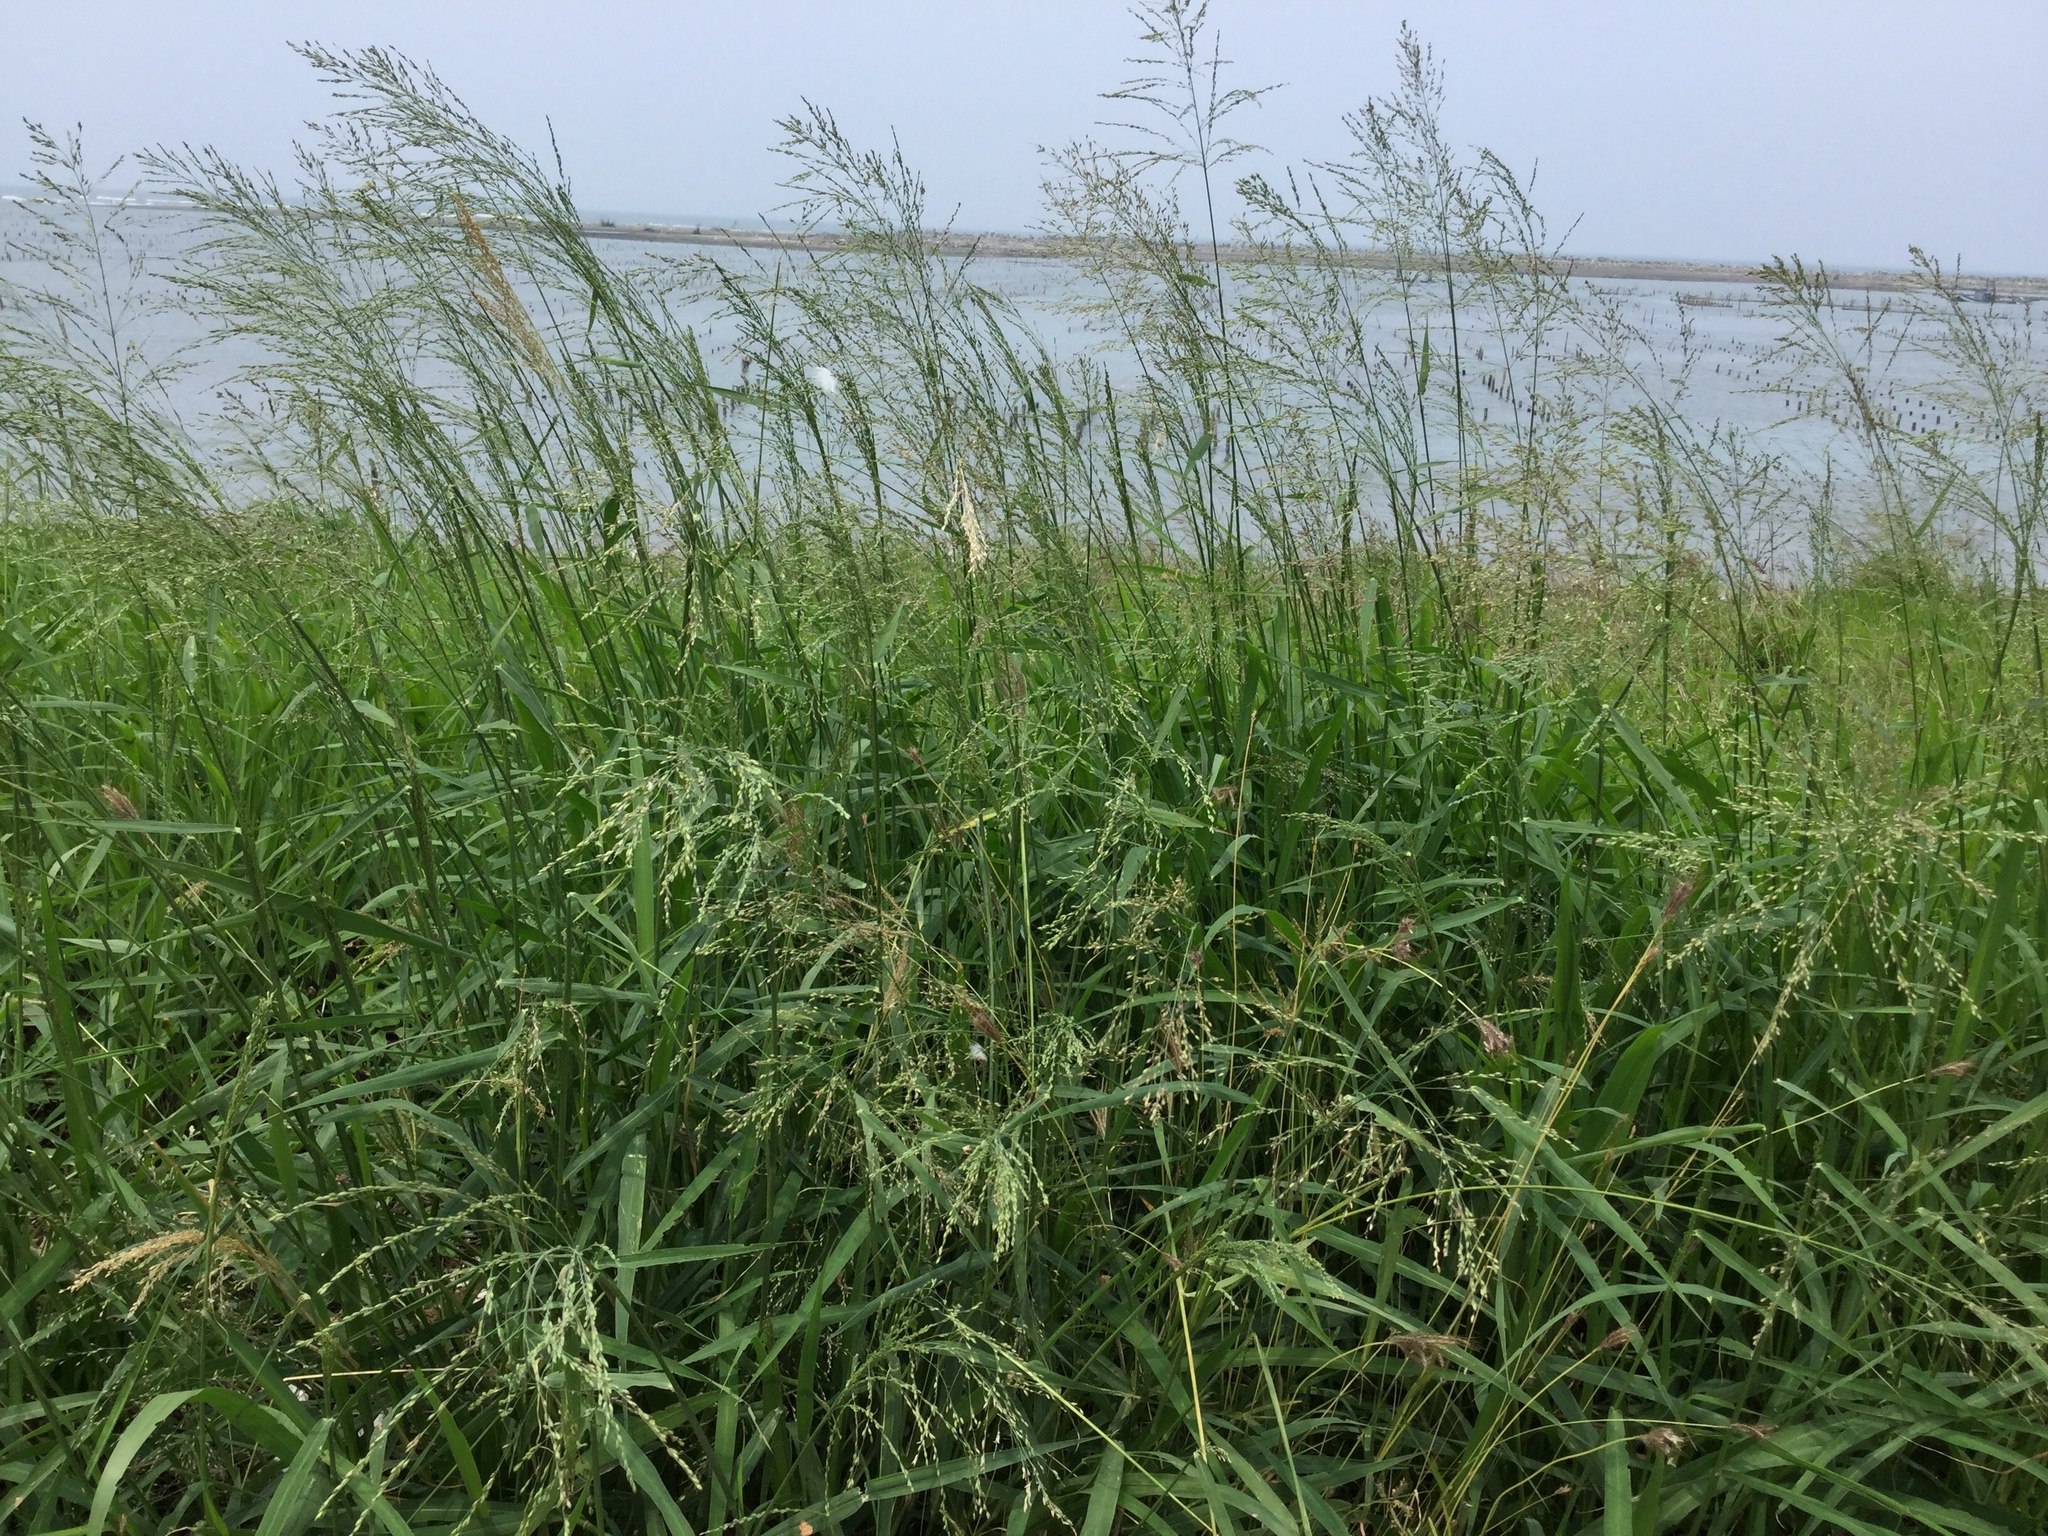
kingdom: Plantae
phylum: Tracheophyta
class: Liliopsida
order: Poales
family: Poaceae
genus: Megathyrsus
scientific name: Megathyrsus maximus
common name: Guineagrass
